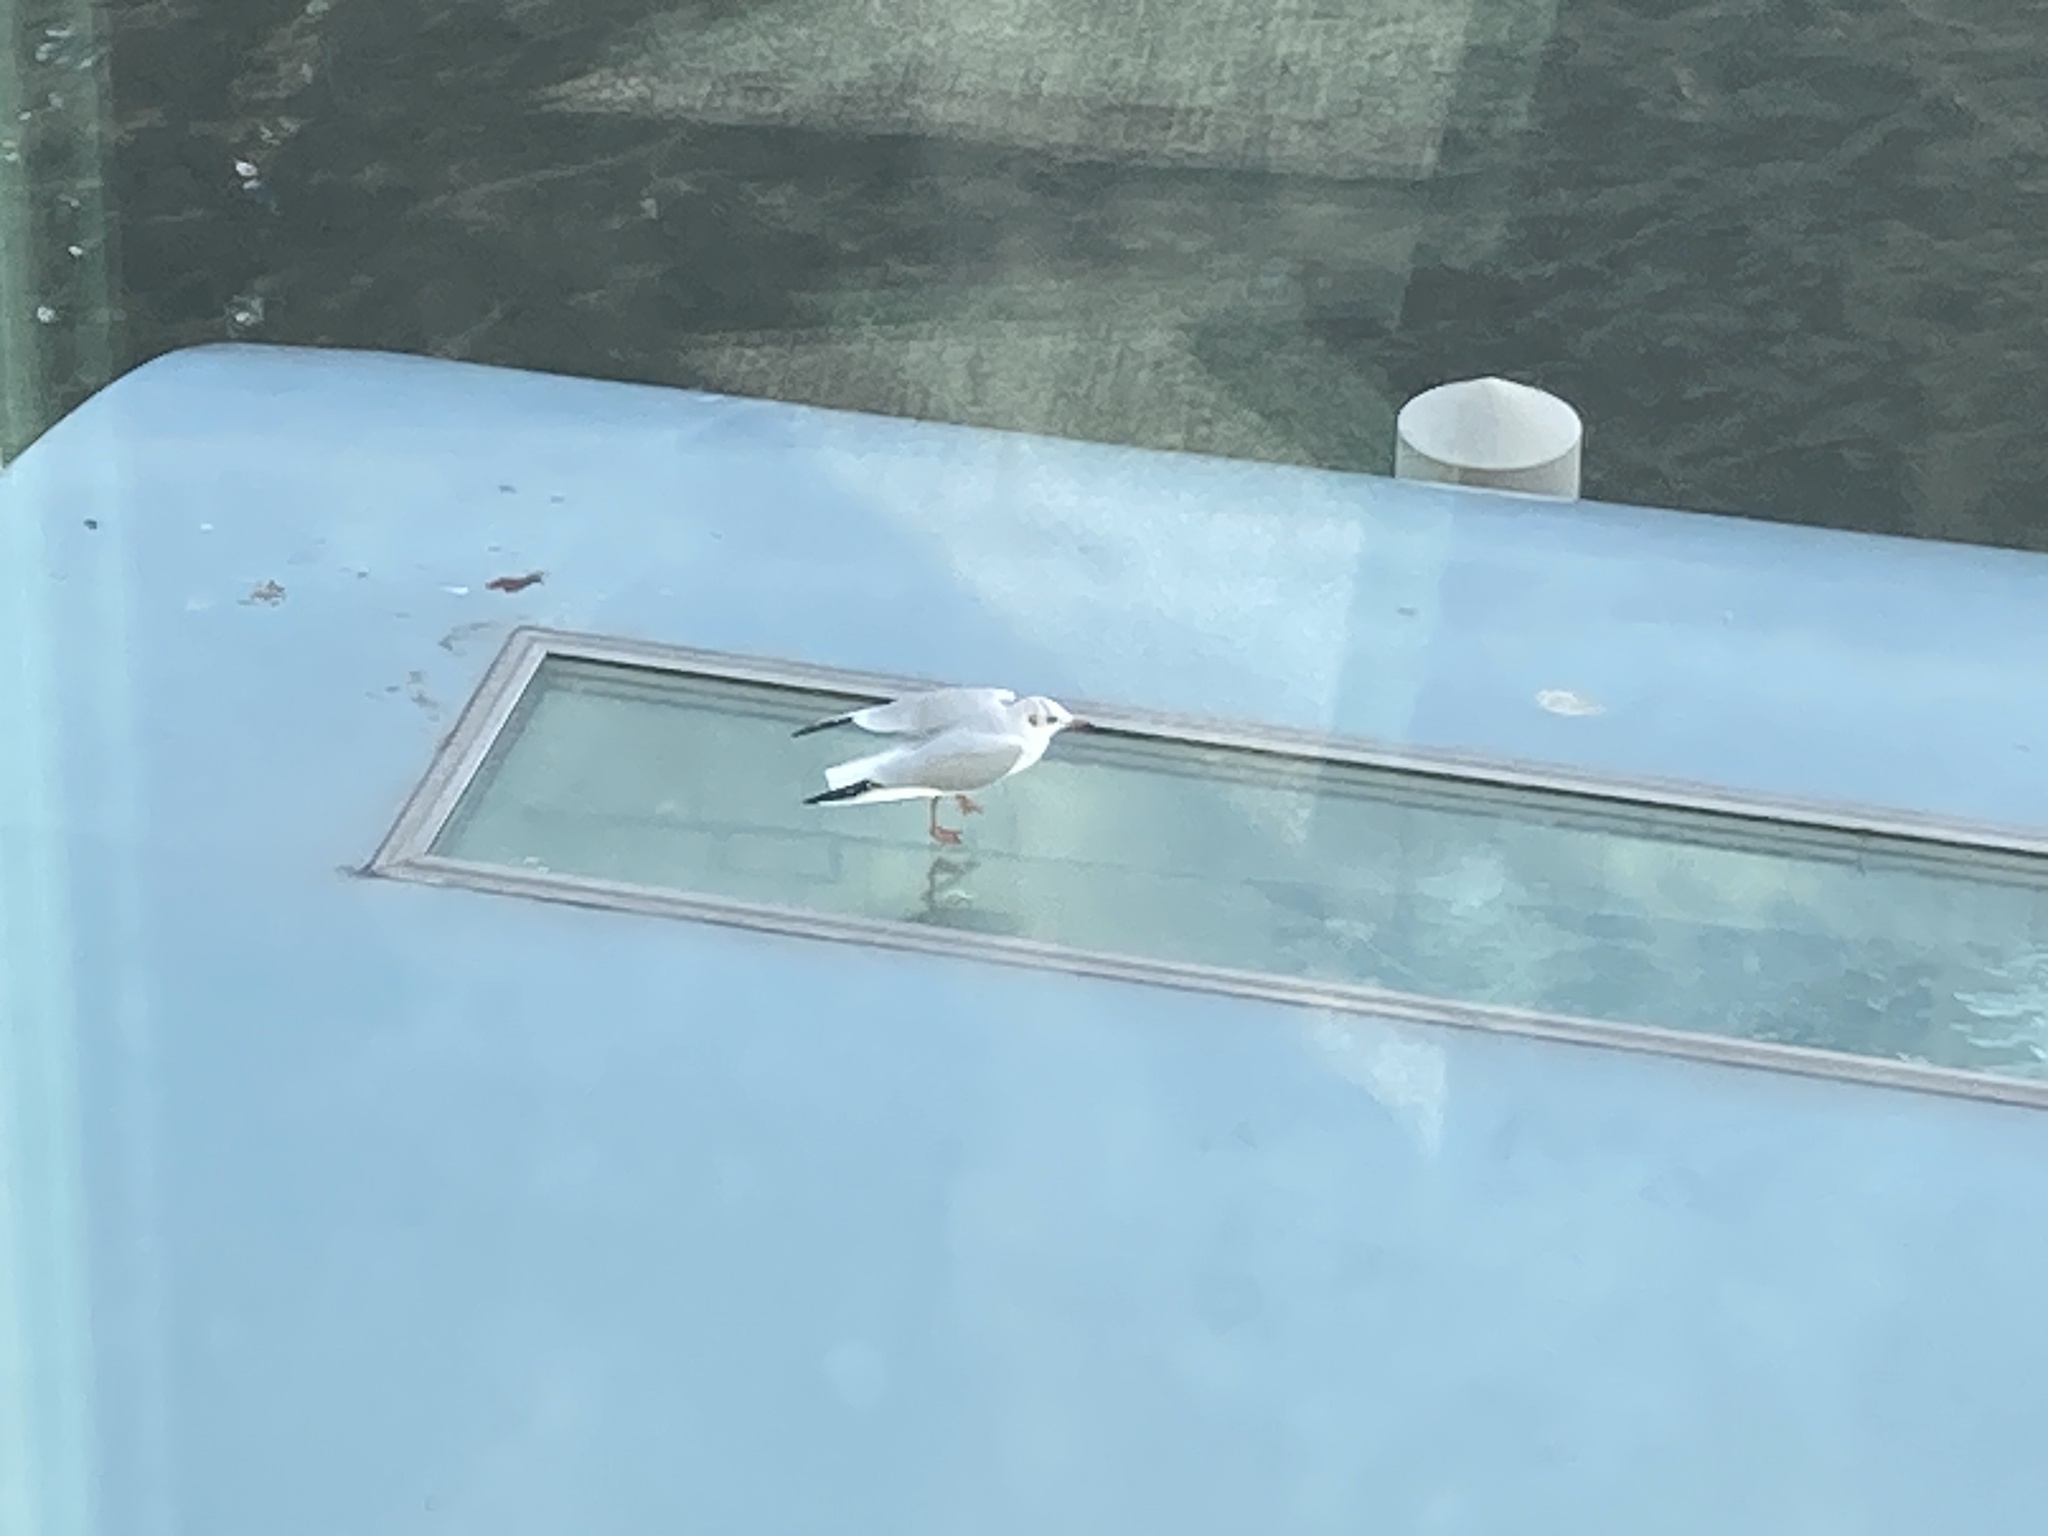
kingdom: Animalia
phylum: Chordata
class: Aves
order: Charadriiformes
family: Laridae
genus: Chroicocephalus
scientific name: Chroicocephalus ridibundus
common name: Black-headed gull
